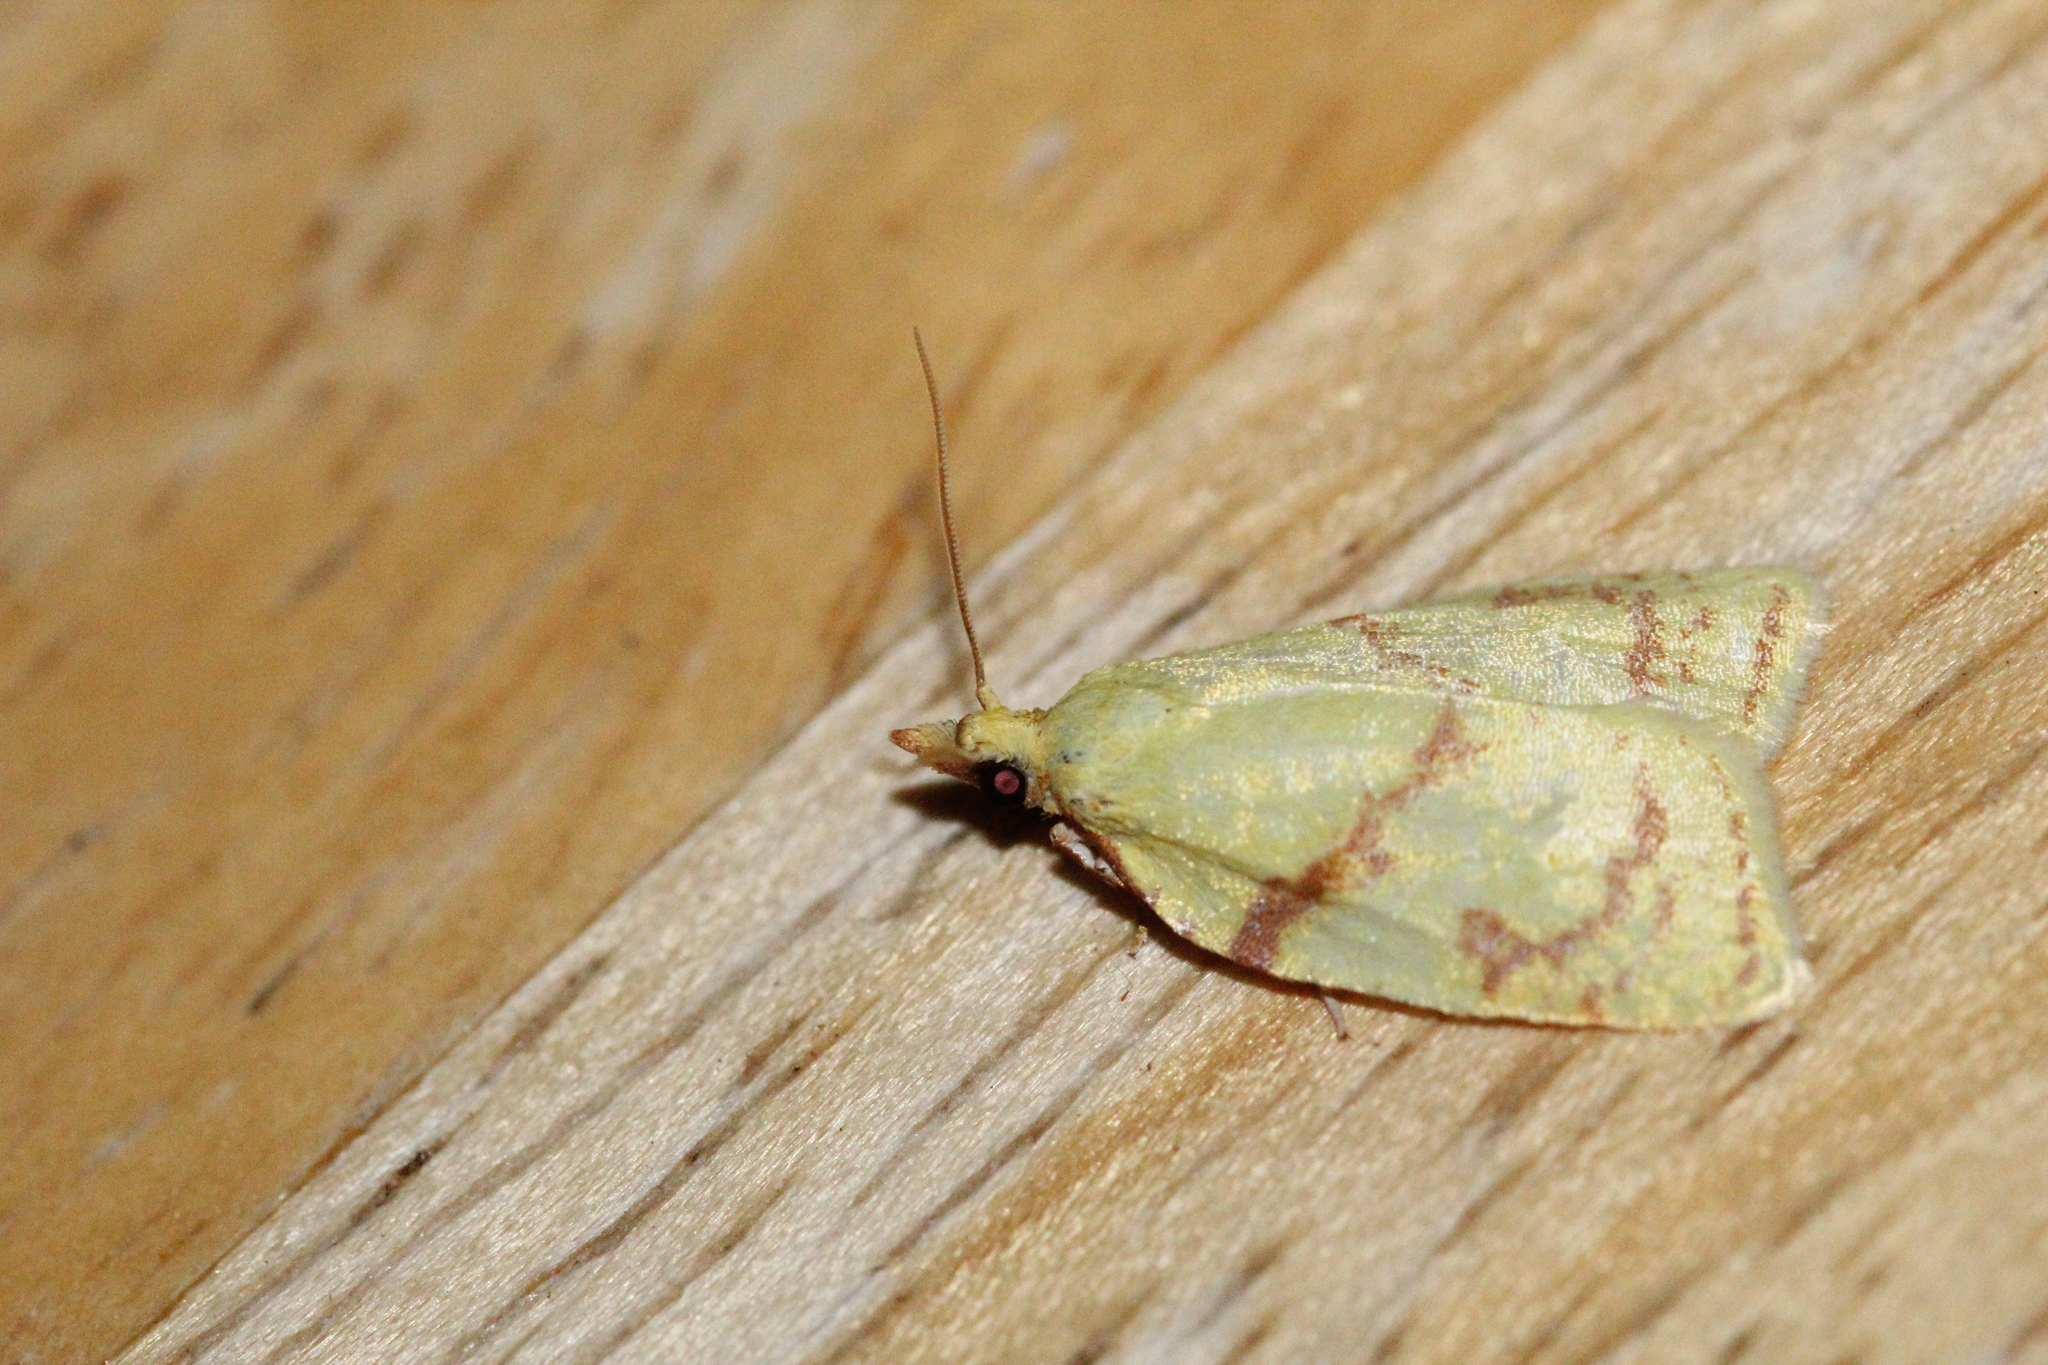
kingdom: Animalia
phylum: Arthropoda
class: Insecta
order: Lepidoptera
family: Tortricidae
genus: Cenopis
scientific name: Cenopis pettitana
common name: Maple-basswood leafroller moth
